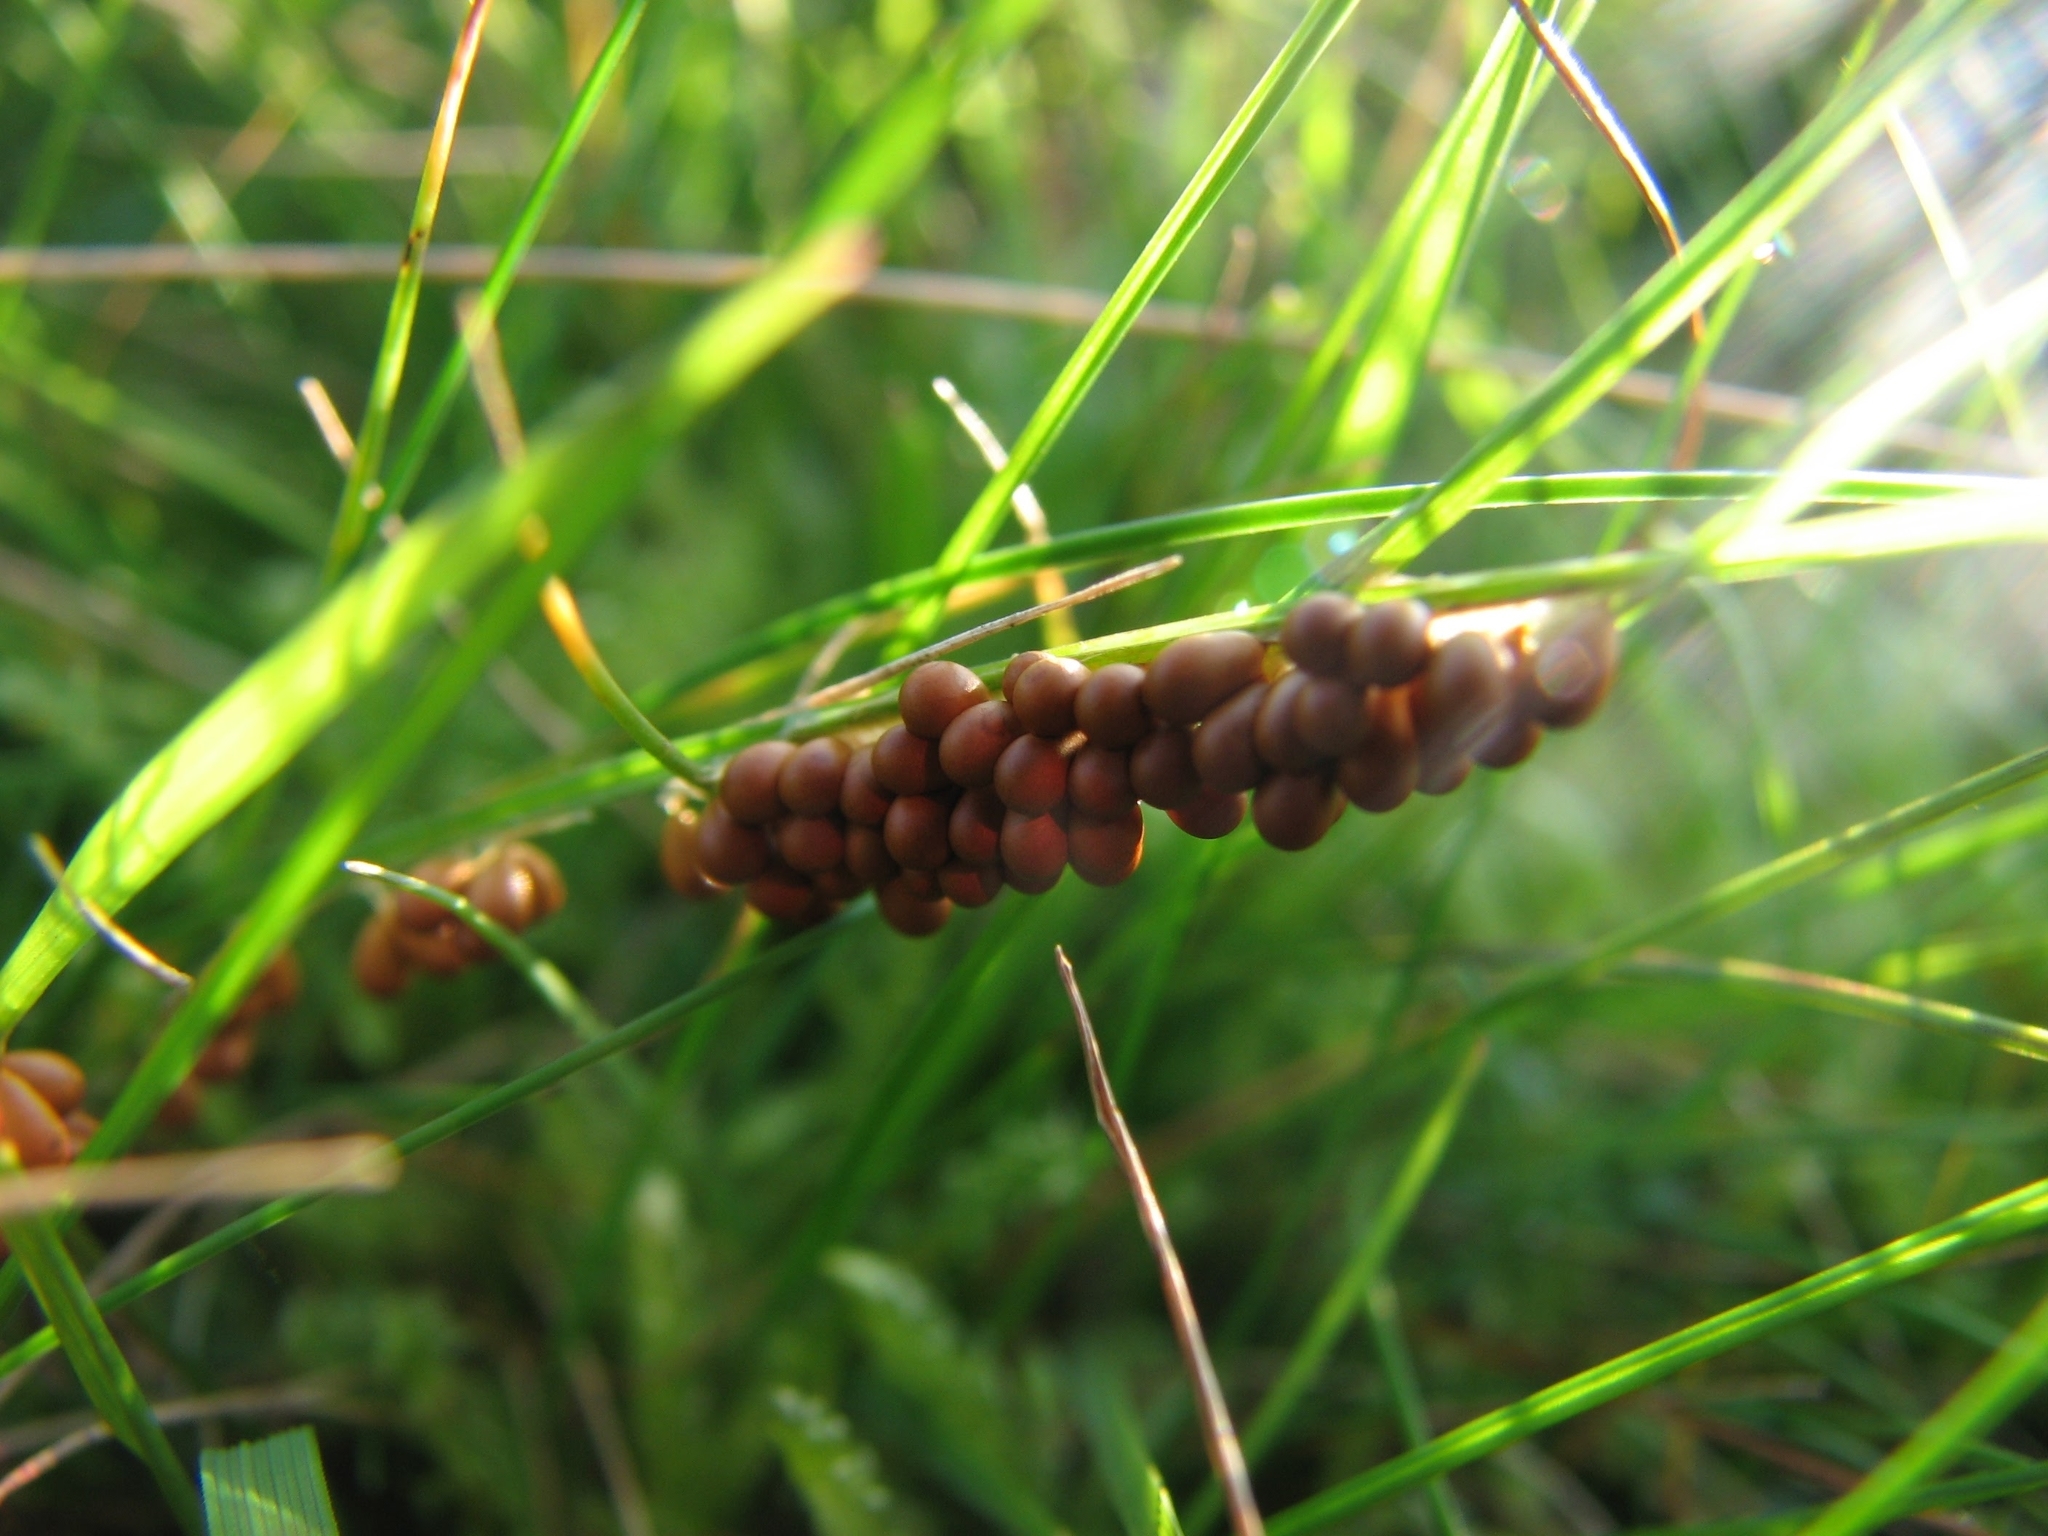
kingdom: Protozoa
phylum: Mycetozoa
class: Myxomycetes
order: Physarales
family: Physaraceae
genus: Leocarpus
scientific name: Leocarpus fragilis
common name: Insect-egg slime
